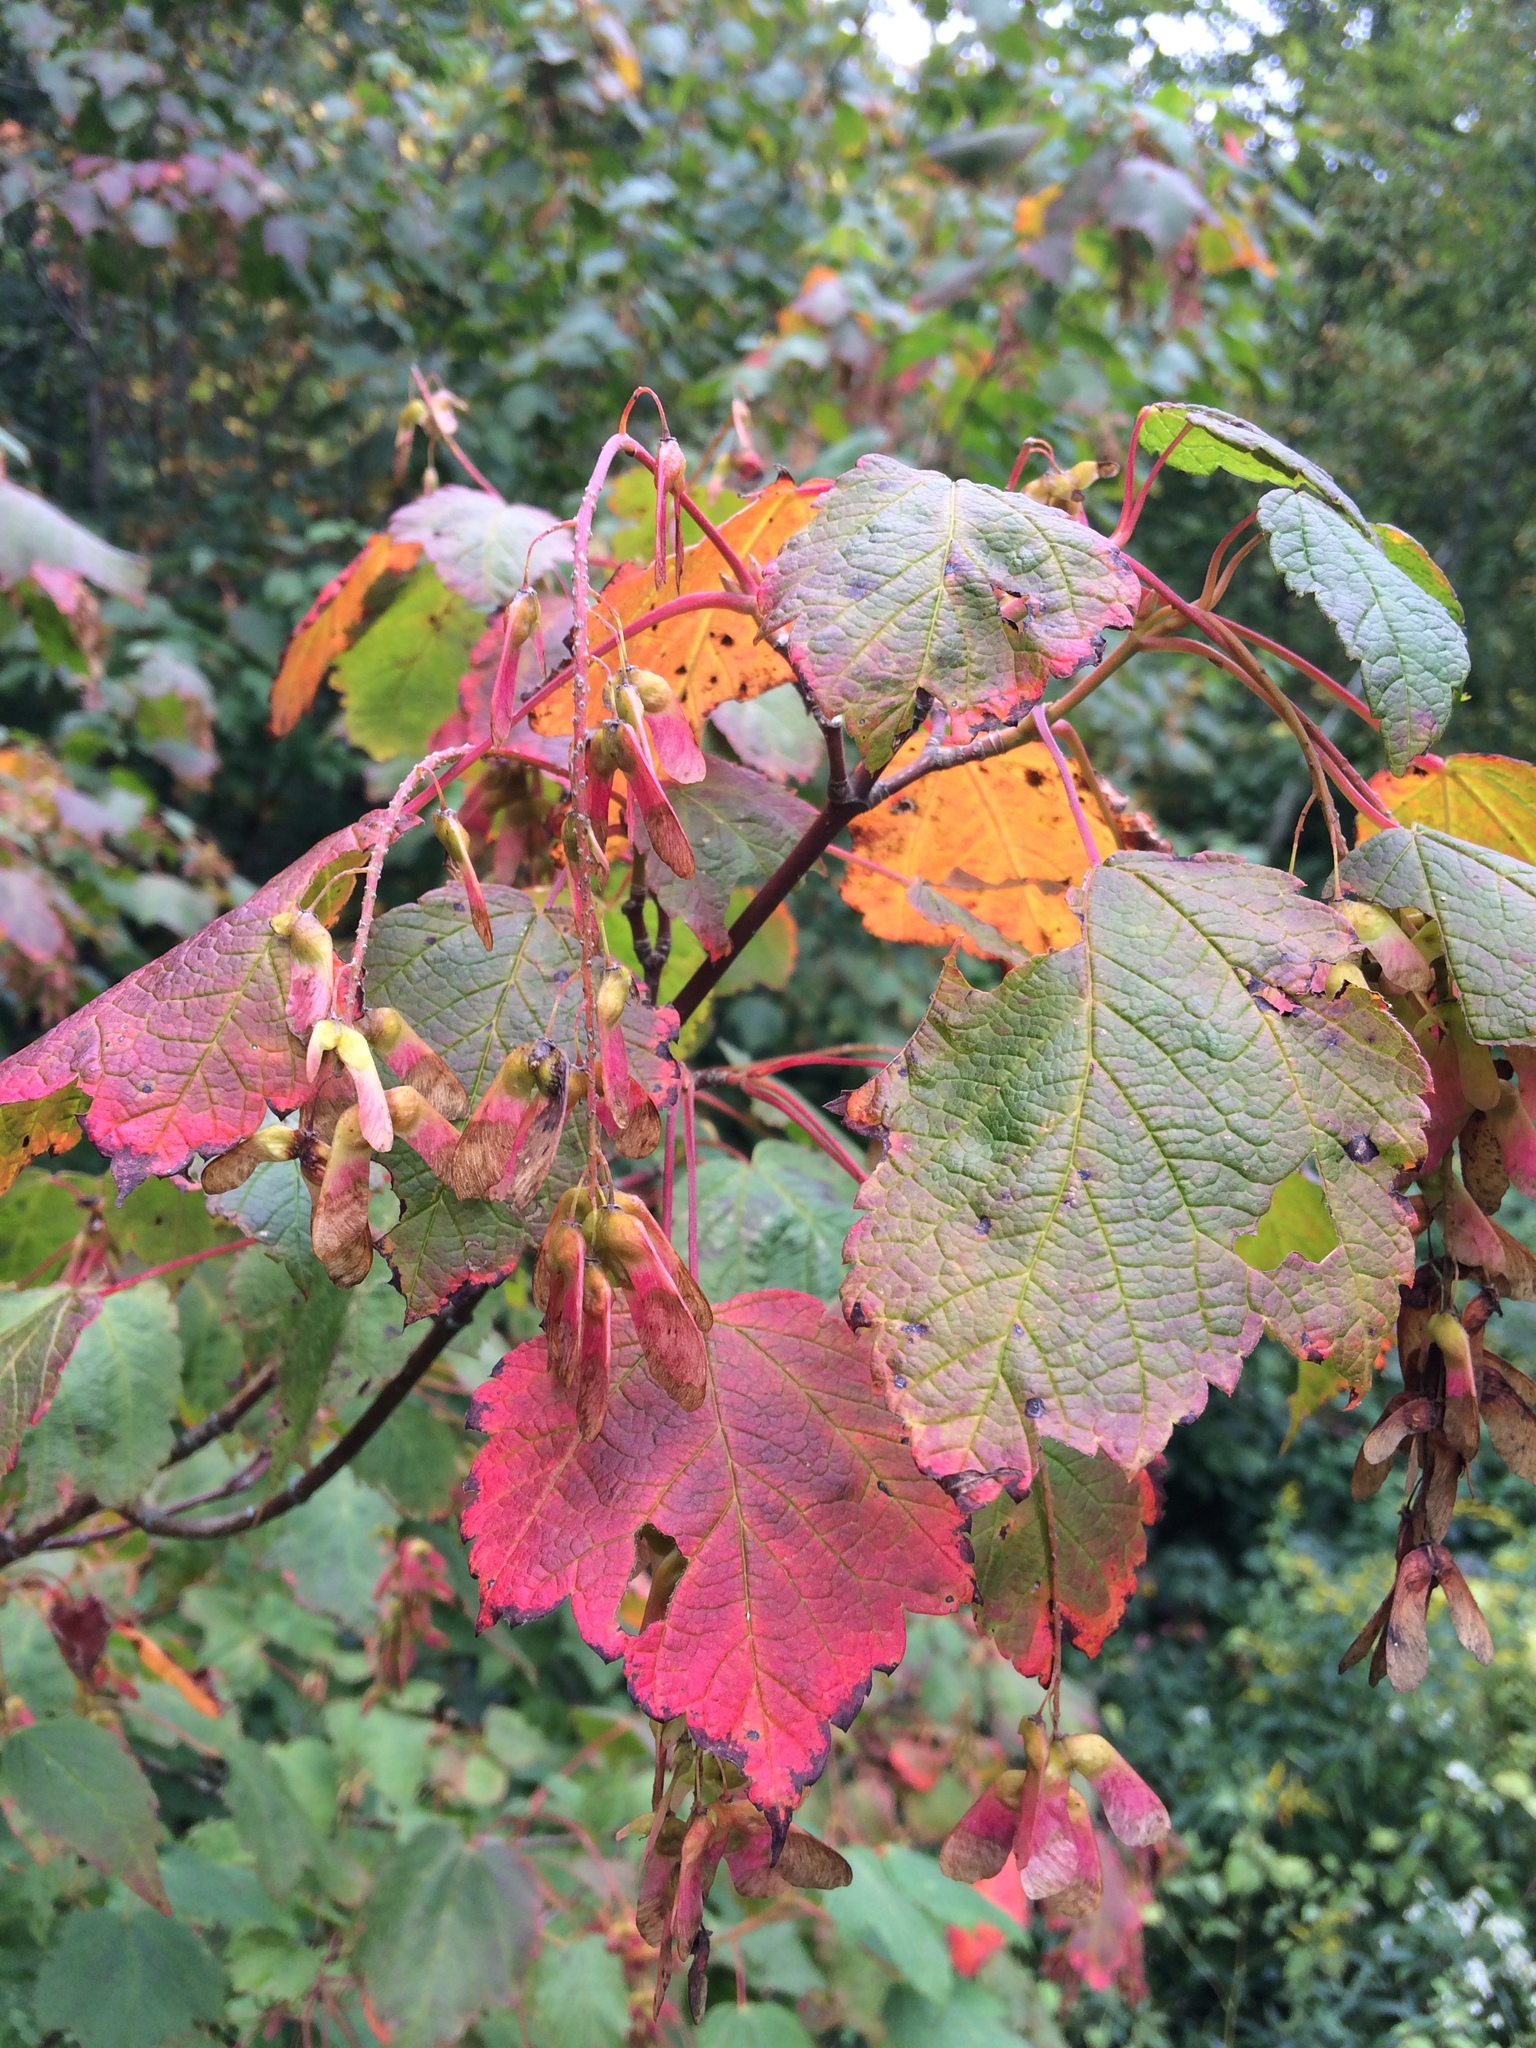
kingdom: Plantae
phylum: Tracheophyta
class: Magnoliopsida
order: Sapindales
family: Sapindaceae
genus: Acer
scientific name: Acer spicatum
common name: Mountain maple
